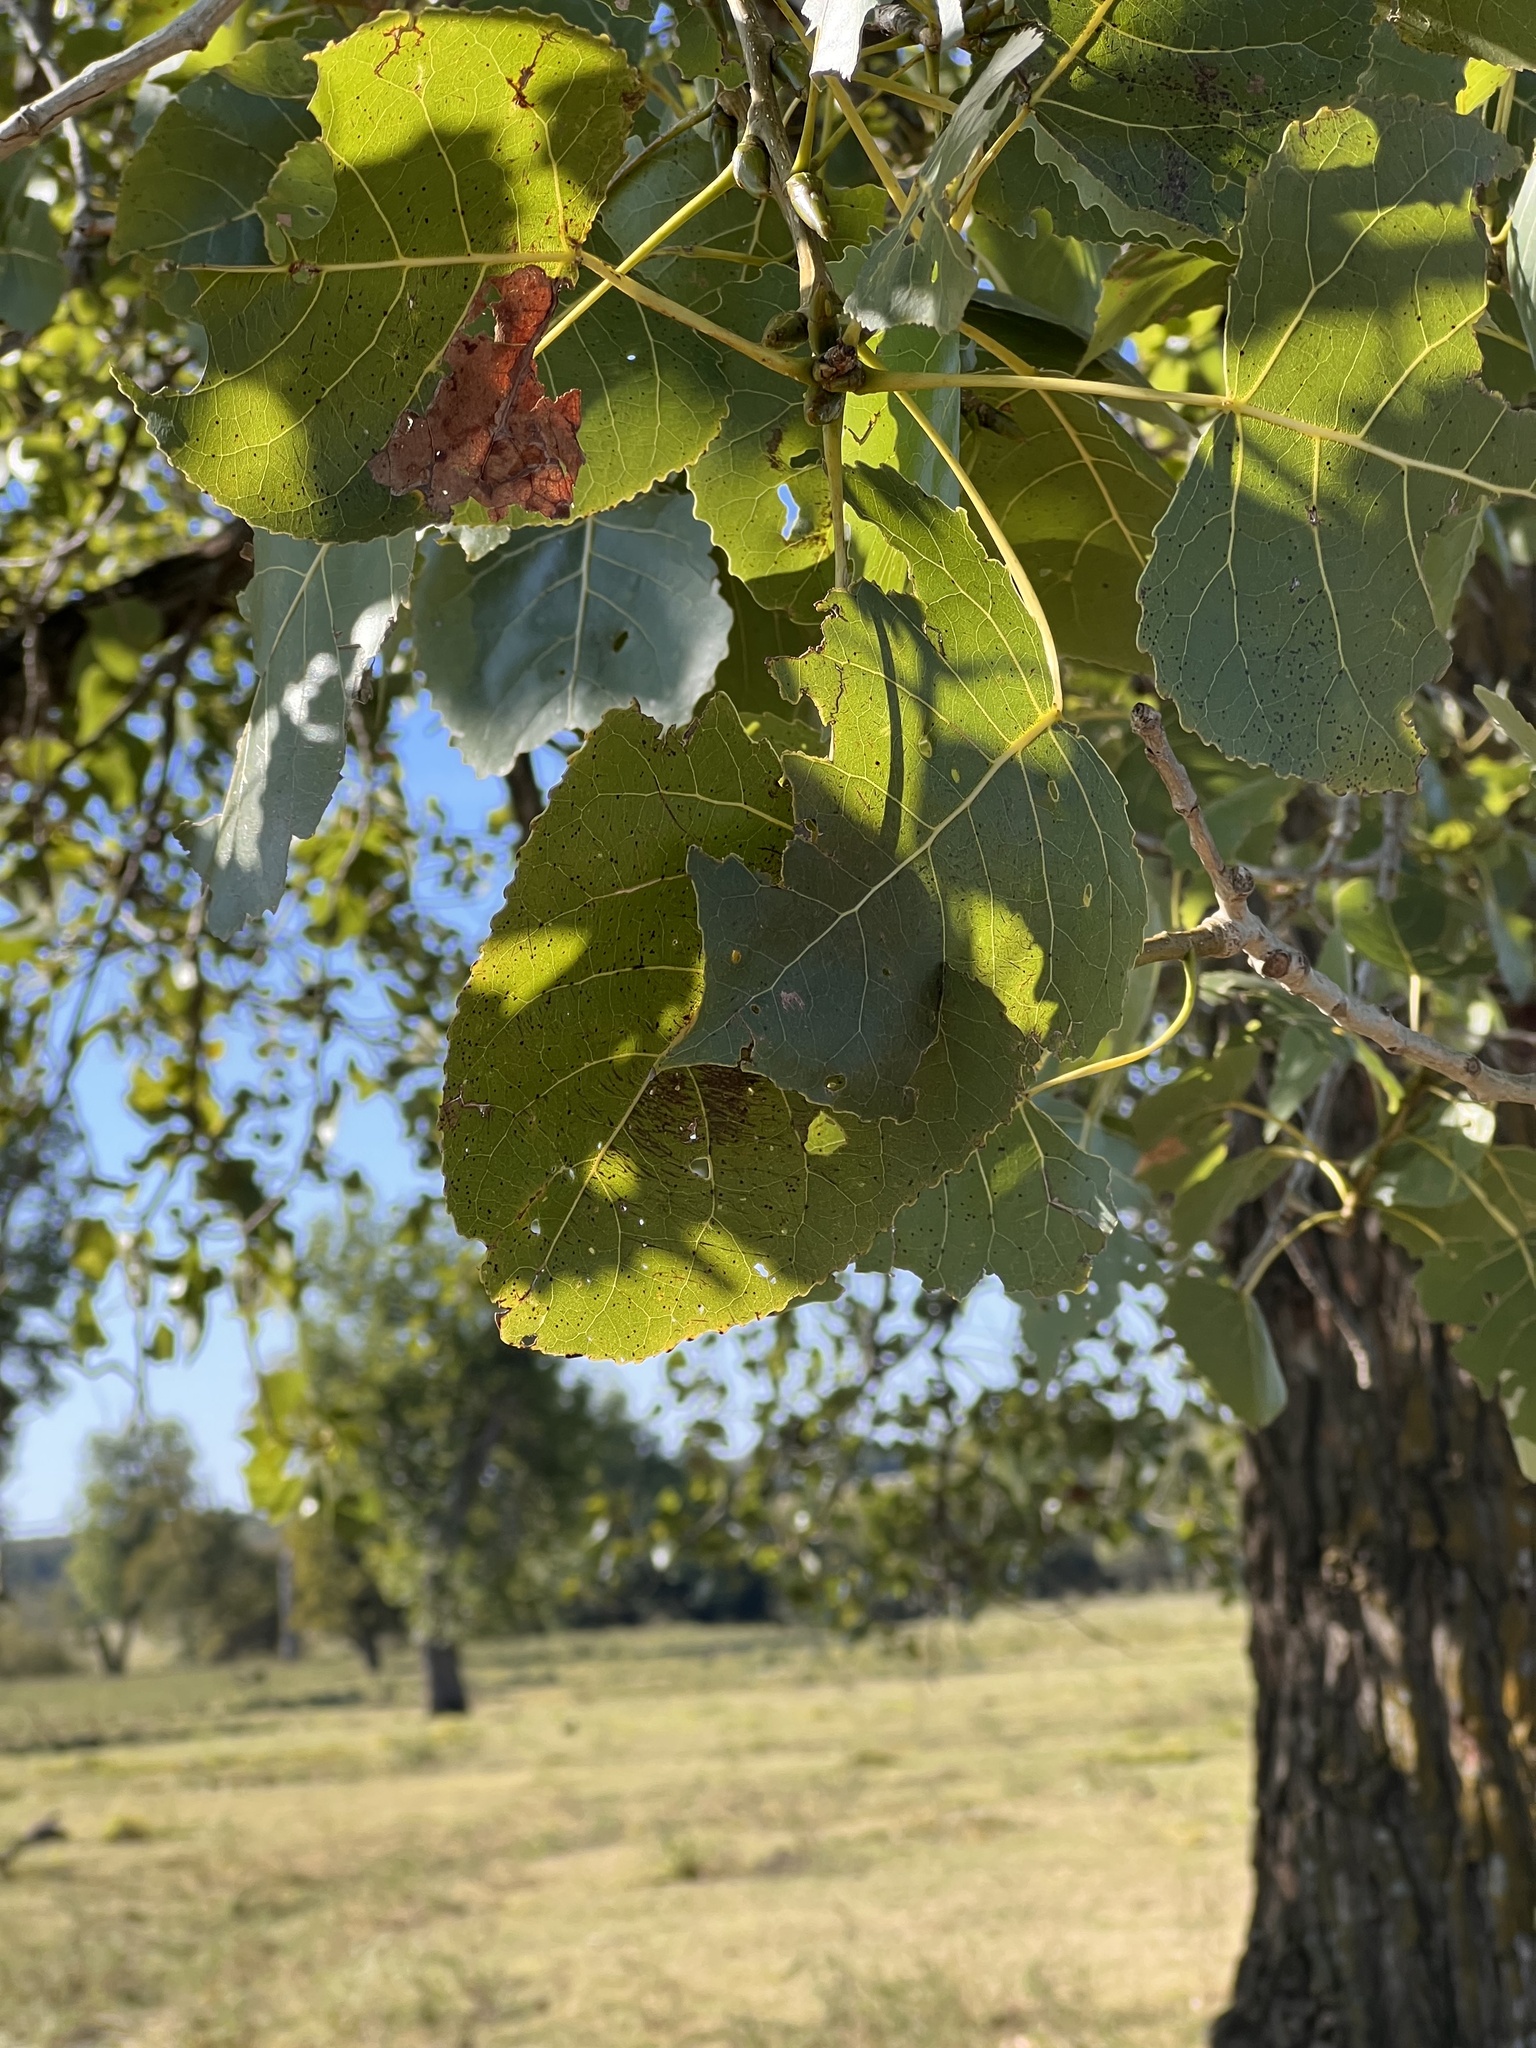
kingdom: Plantae
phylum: Tracheophyta
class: Magnoliopsida
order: Malpighiales
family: Salicaceae
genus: Populus
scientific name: Populus deltoides
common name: Eastern cottonwood
